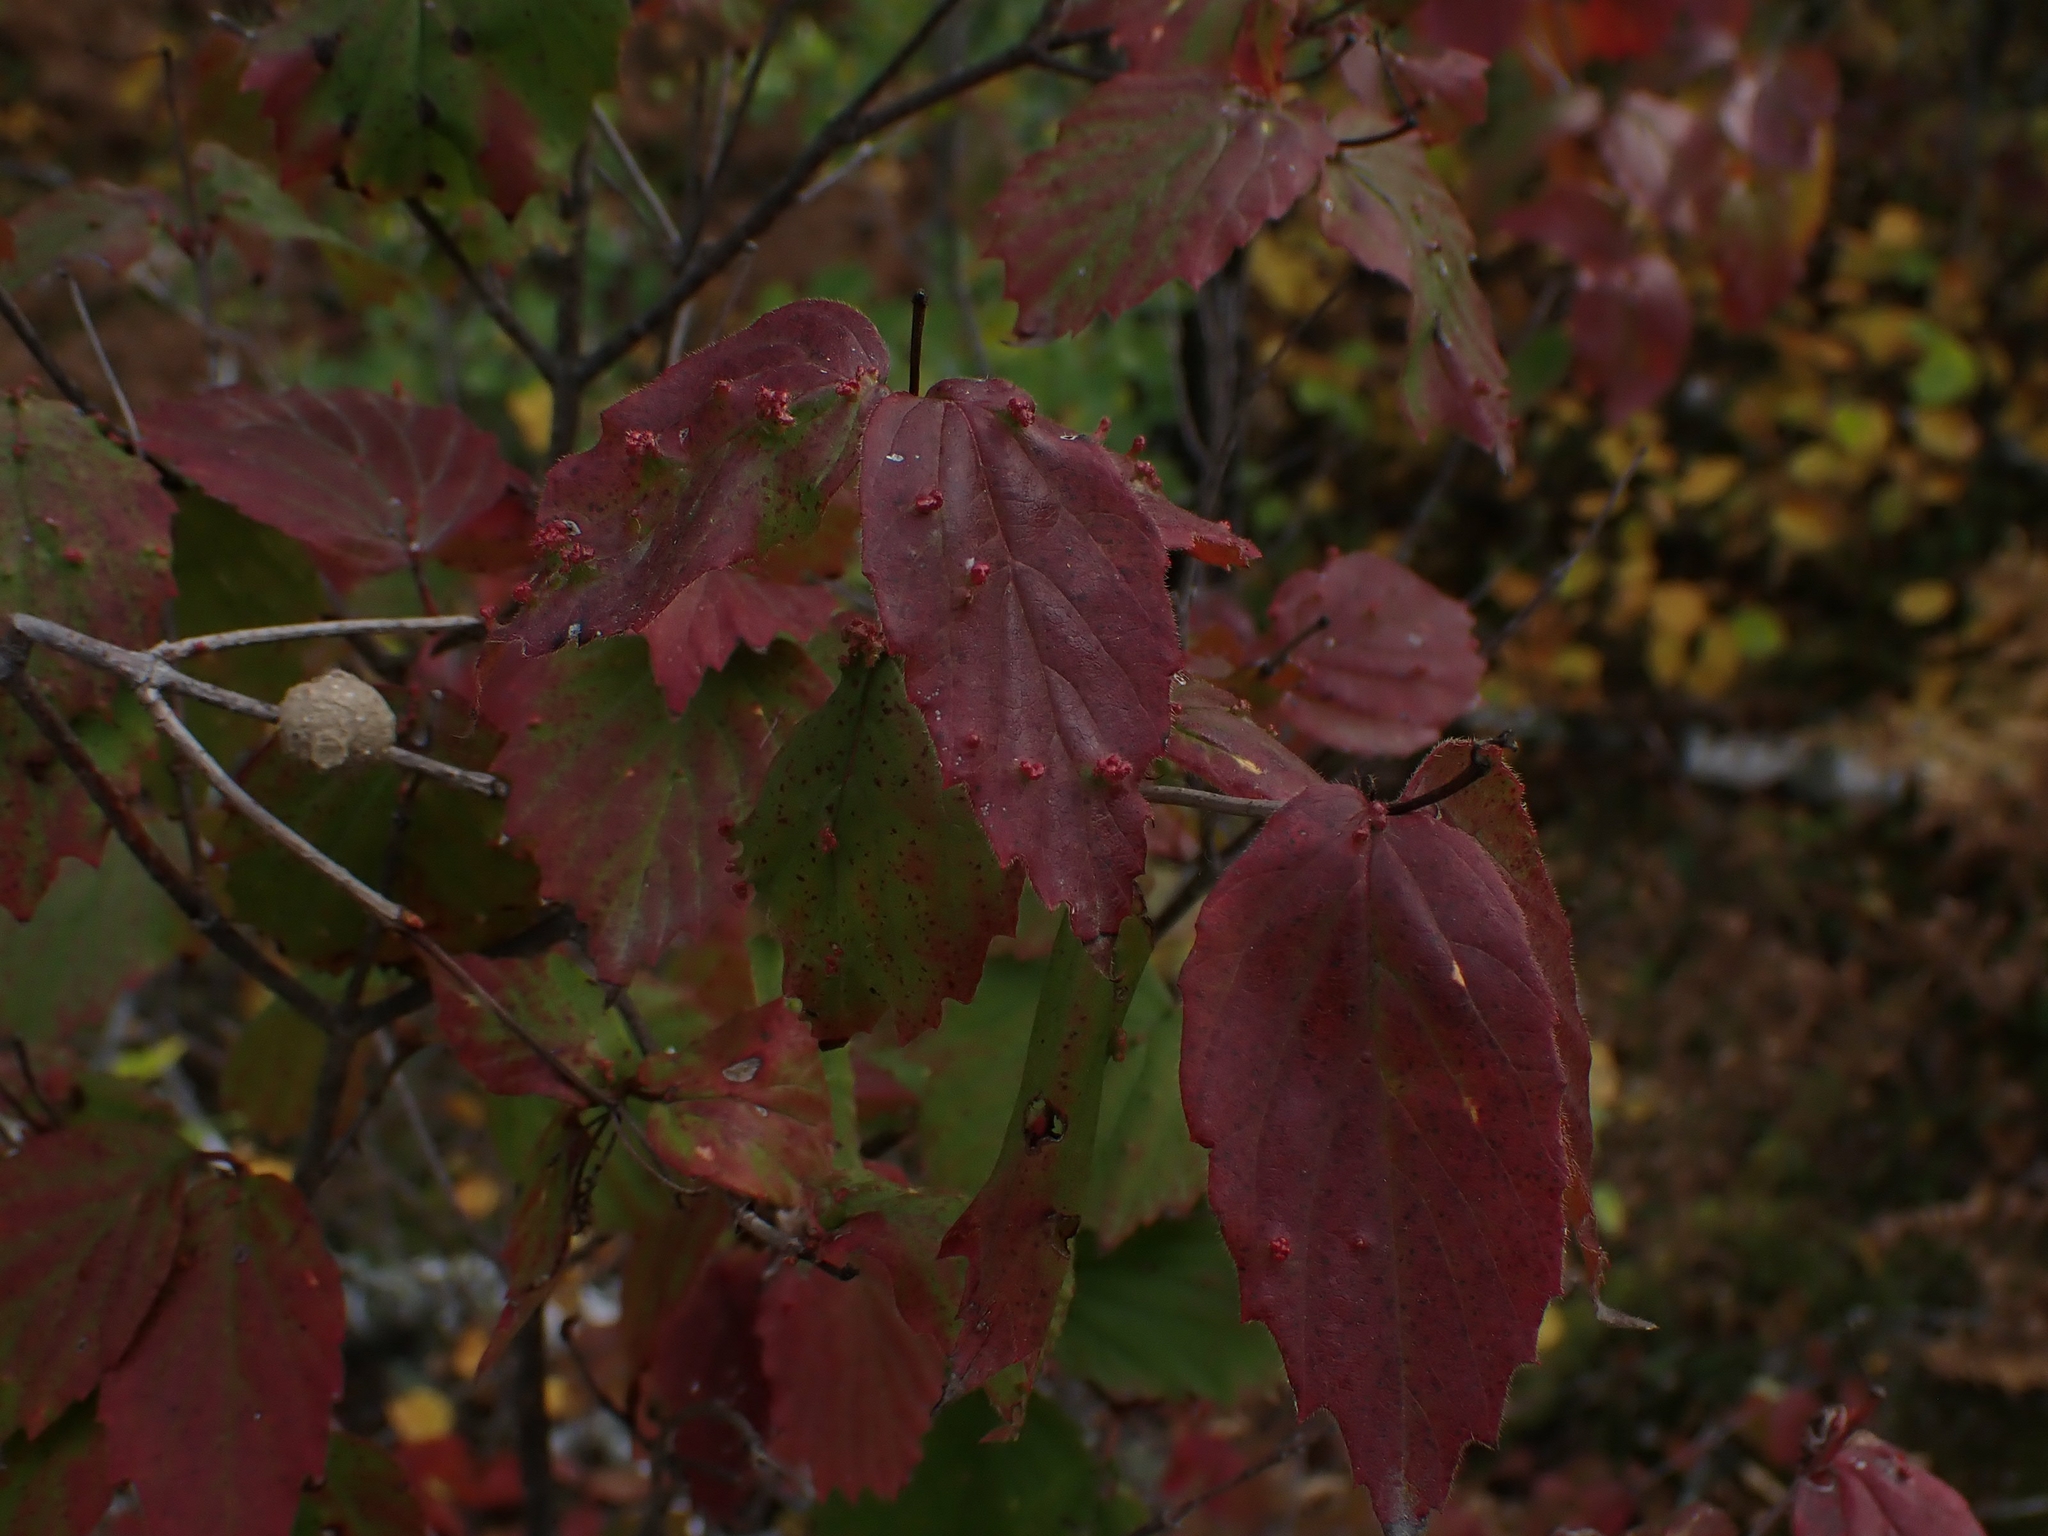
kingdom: Plantae
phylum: Tracheophyta
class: Magnoliopsida
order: Dipsacales
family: Viburnaceae
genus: Viburnum
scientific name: Viburnum rafinesqueanum
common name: Downy arrow-wood
